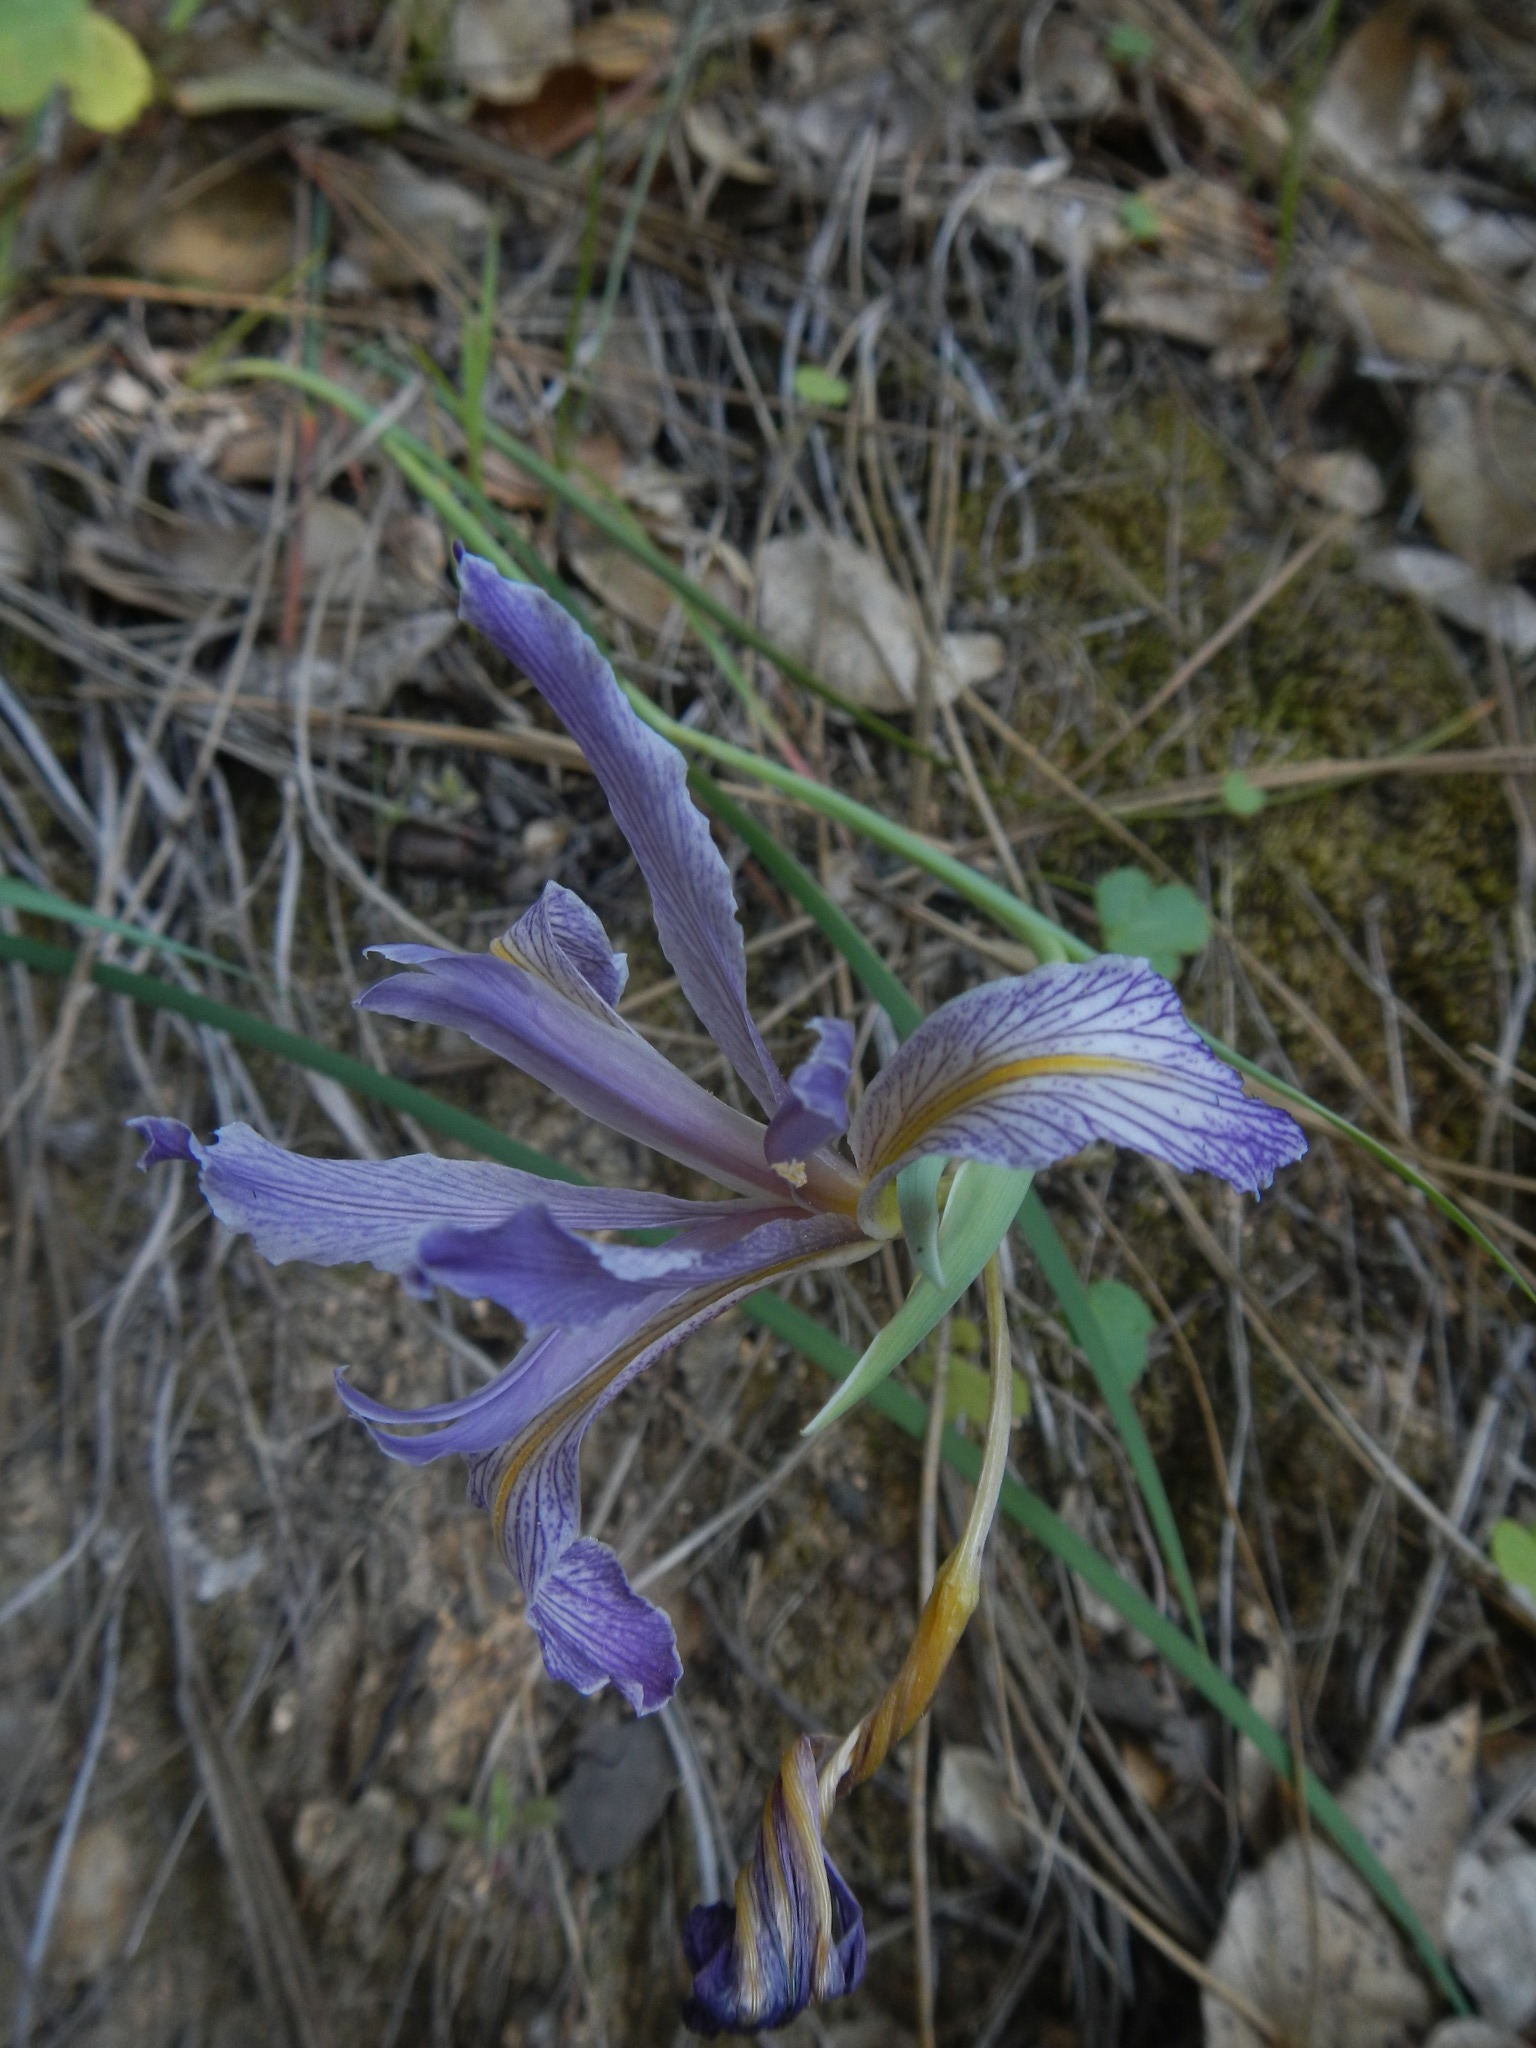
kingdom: Plantae
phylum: Tracheophyta
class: Liliopsida
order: Asparagales
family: Iridaceae
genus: Iris
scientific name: Iris macrosiphon
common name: Ground iris
